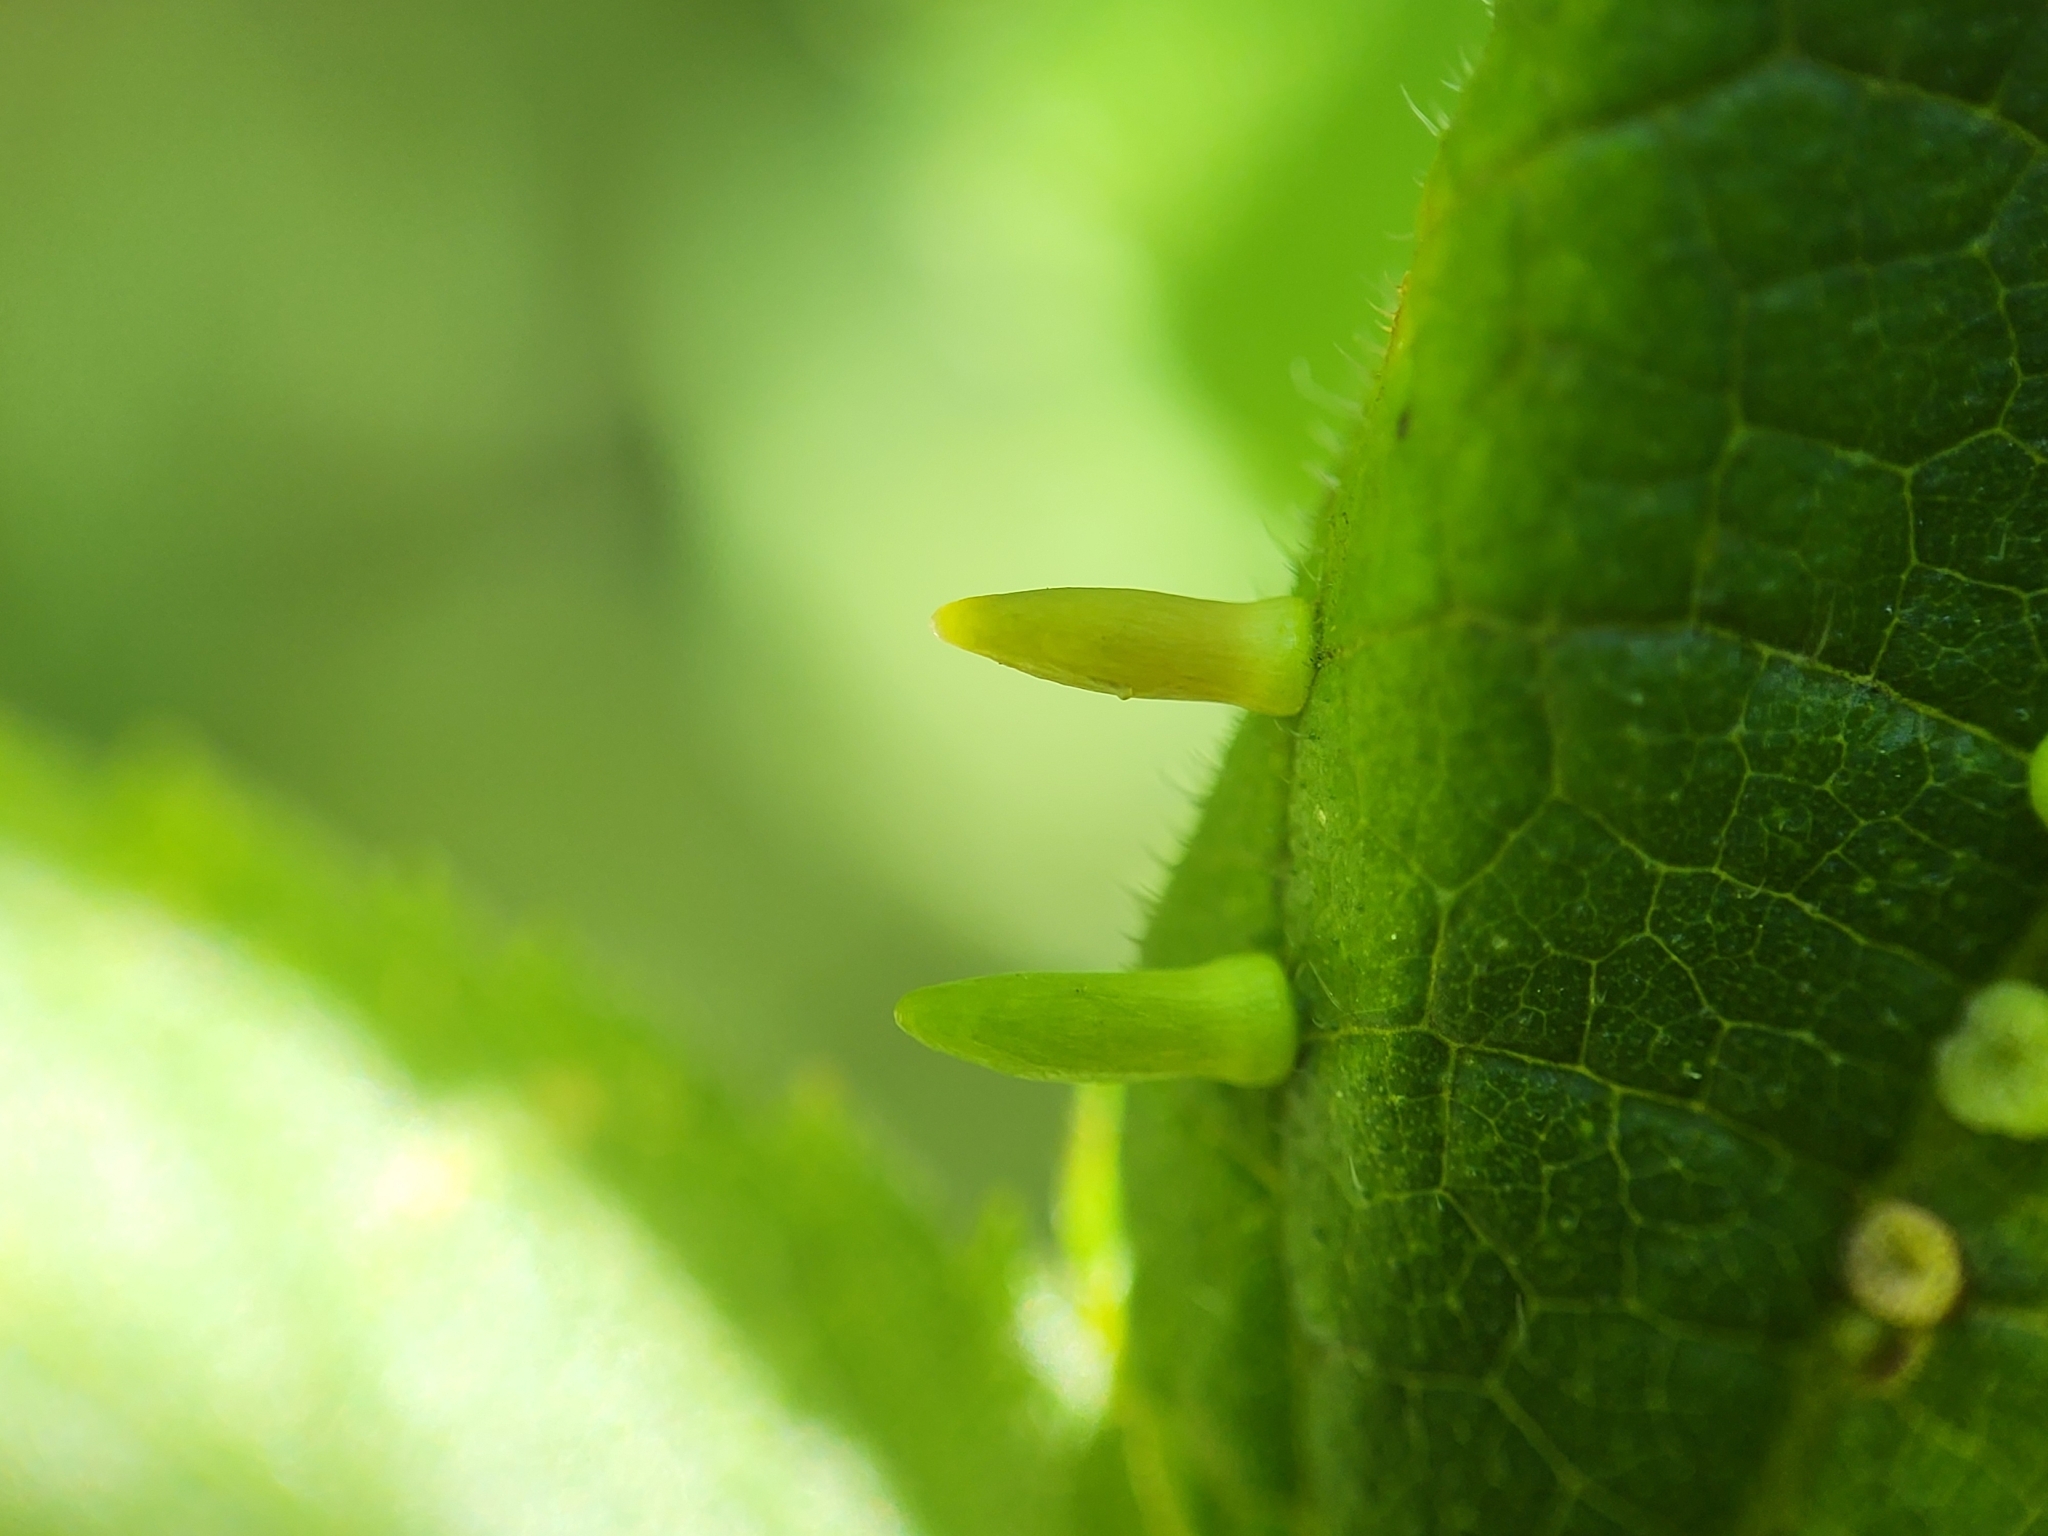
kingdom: Animalia
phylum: Arthropoda
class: Insecta
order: Diptera
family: Cecidomyiidae
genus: Celticecis
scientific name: Celticecis
